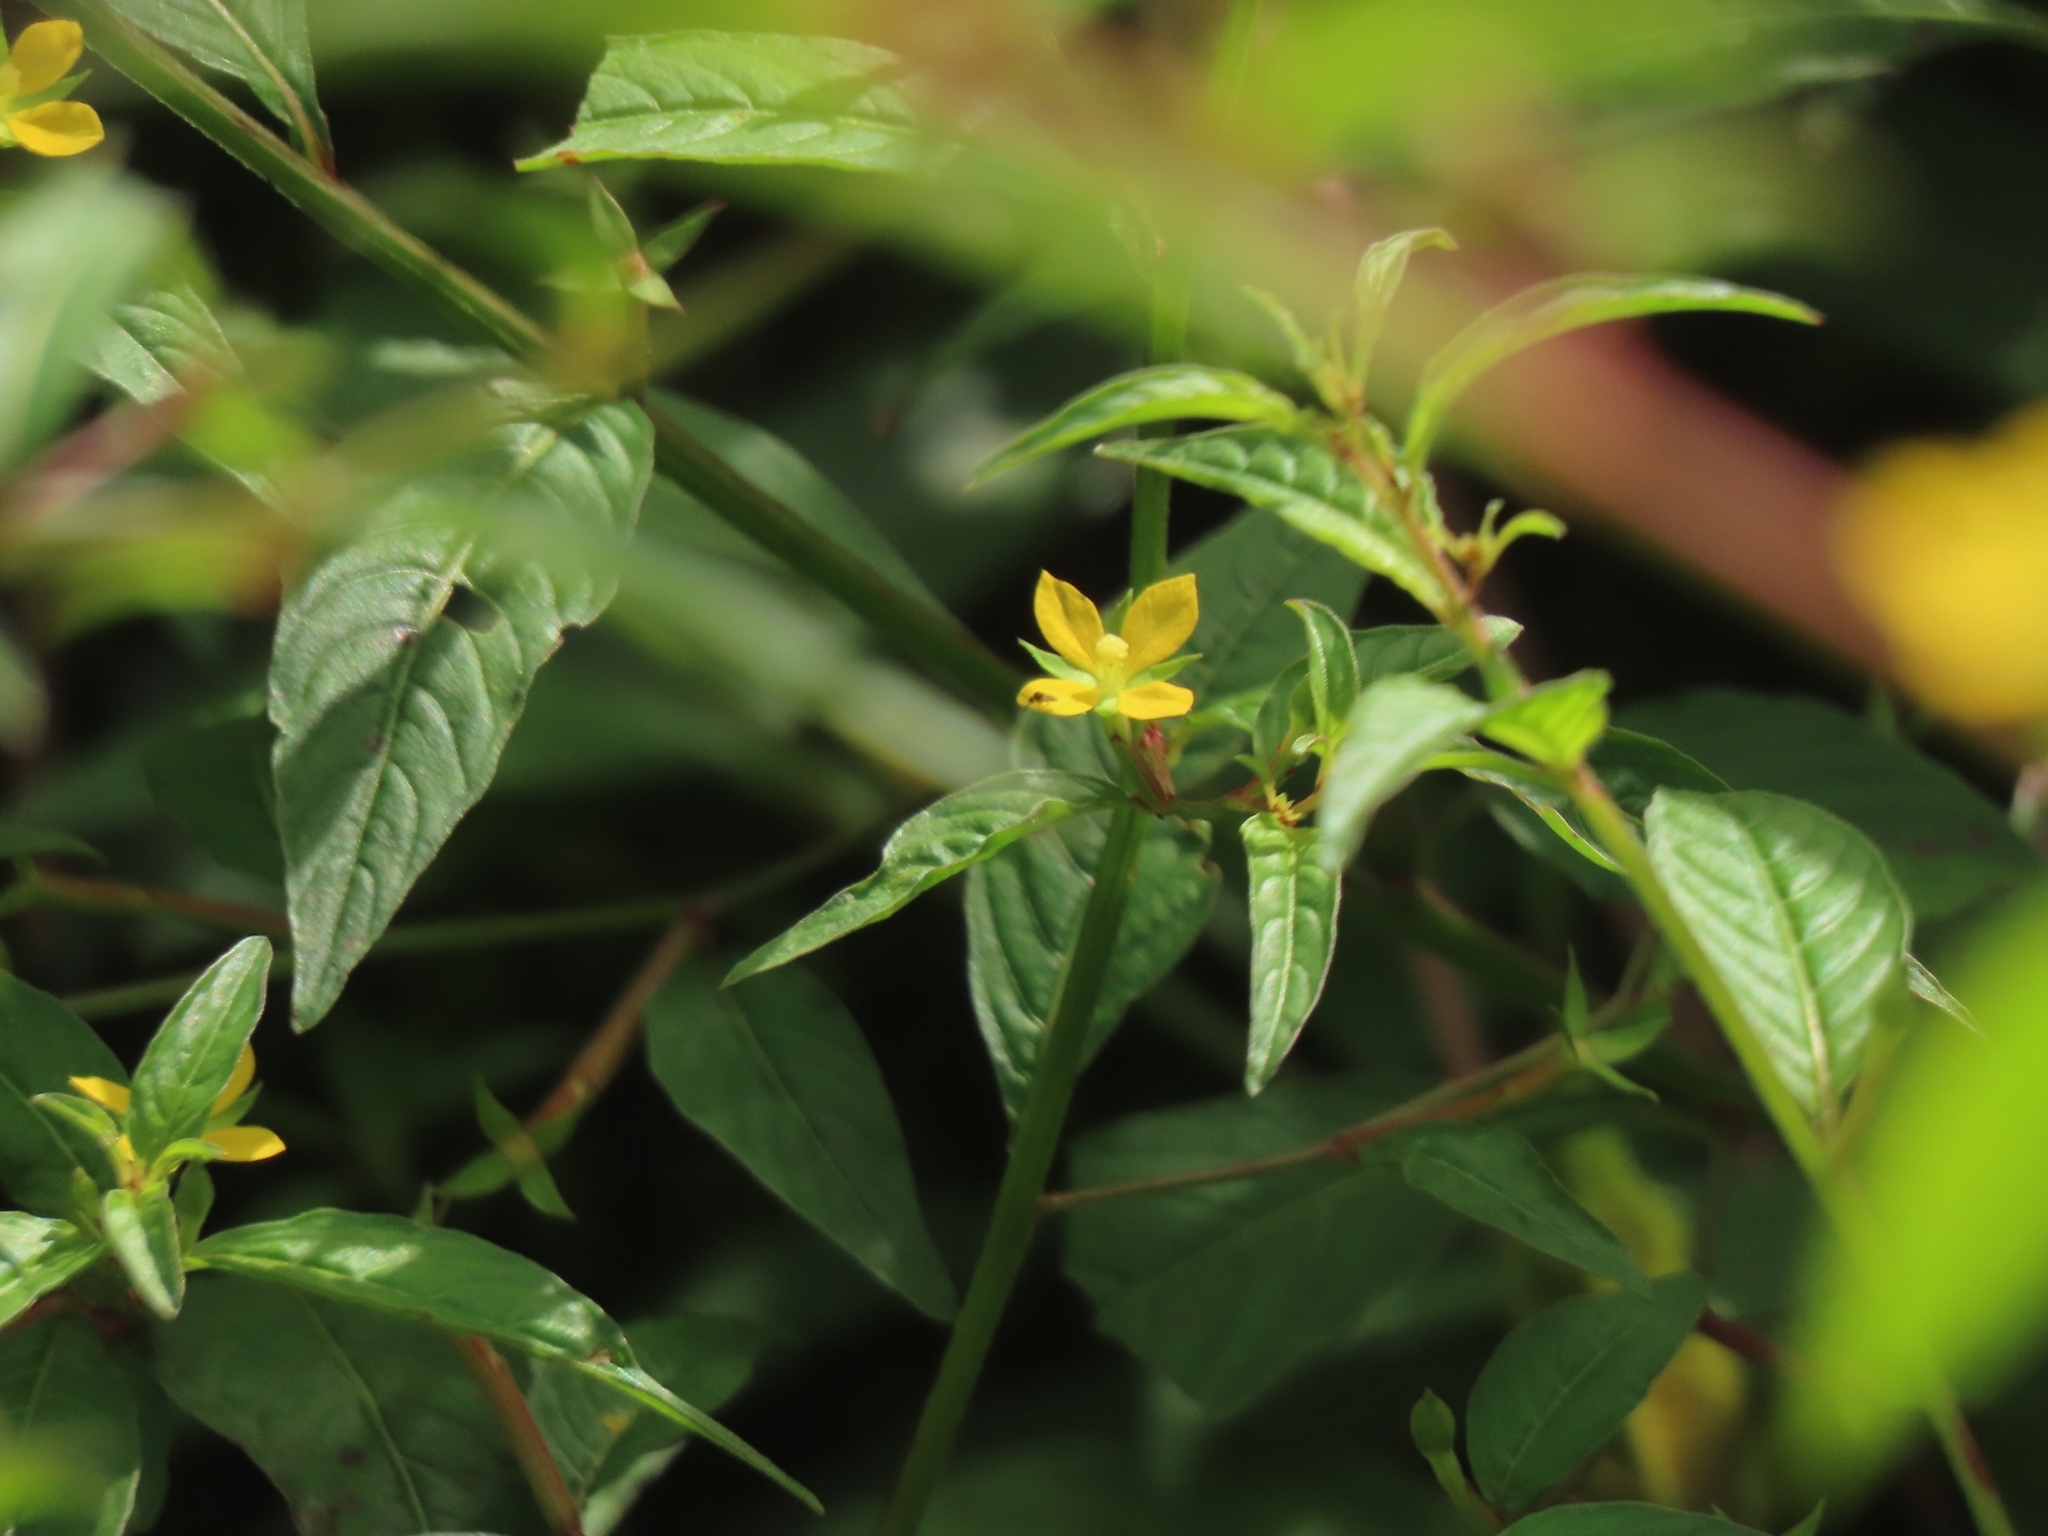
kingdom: Plantae
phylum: Tracheophyta
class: Magnoliopsida
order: Myrtales
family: Onagraceae
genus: Ludwigia
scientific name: Ludwigia hyssopifolia
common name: Linear leaf water primrose
